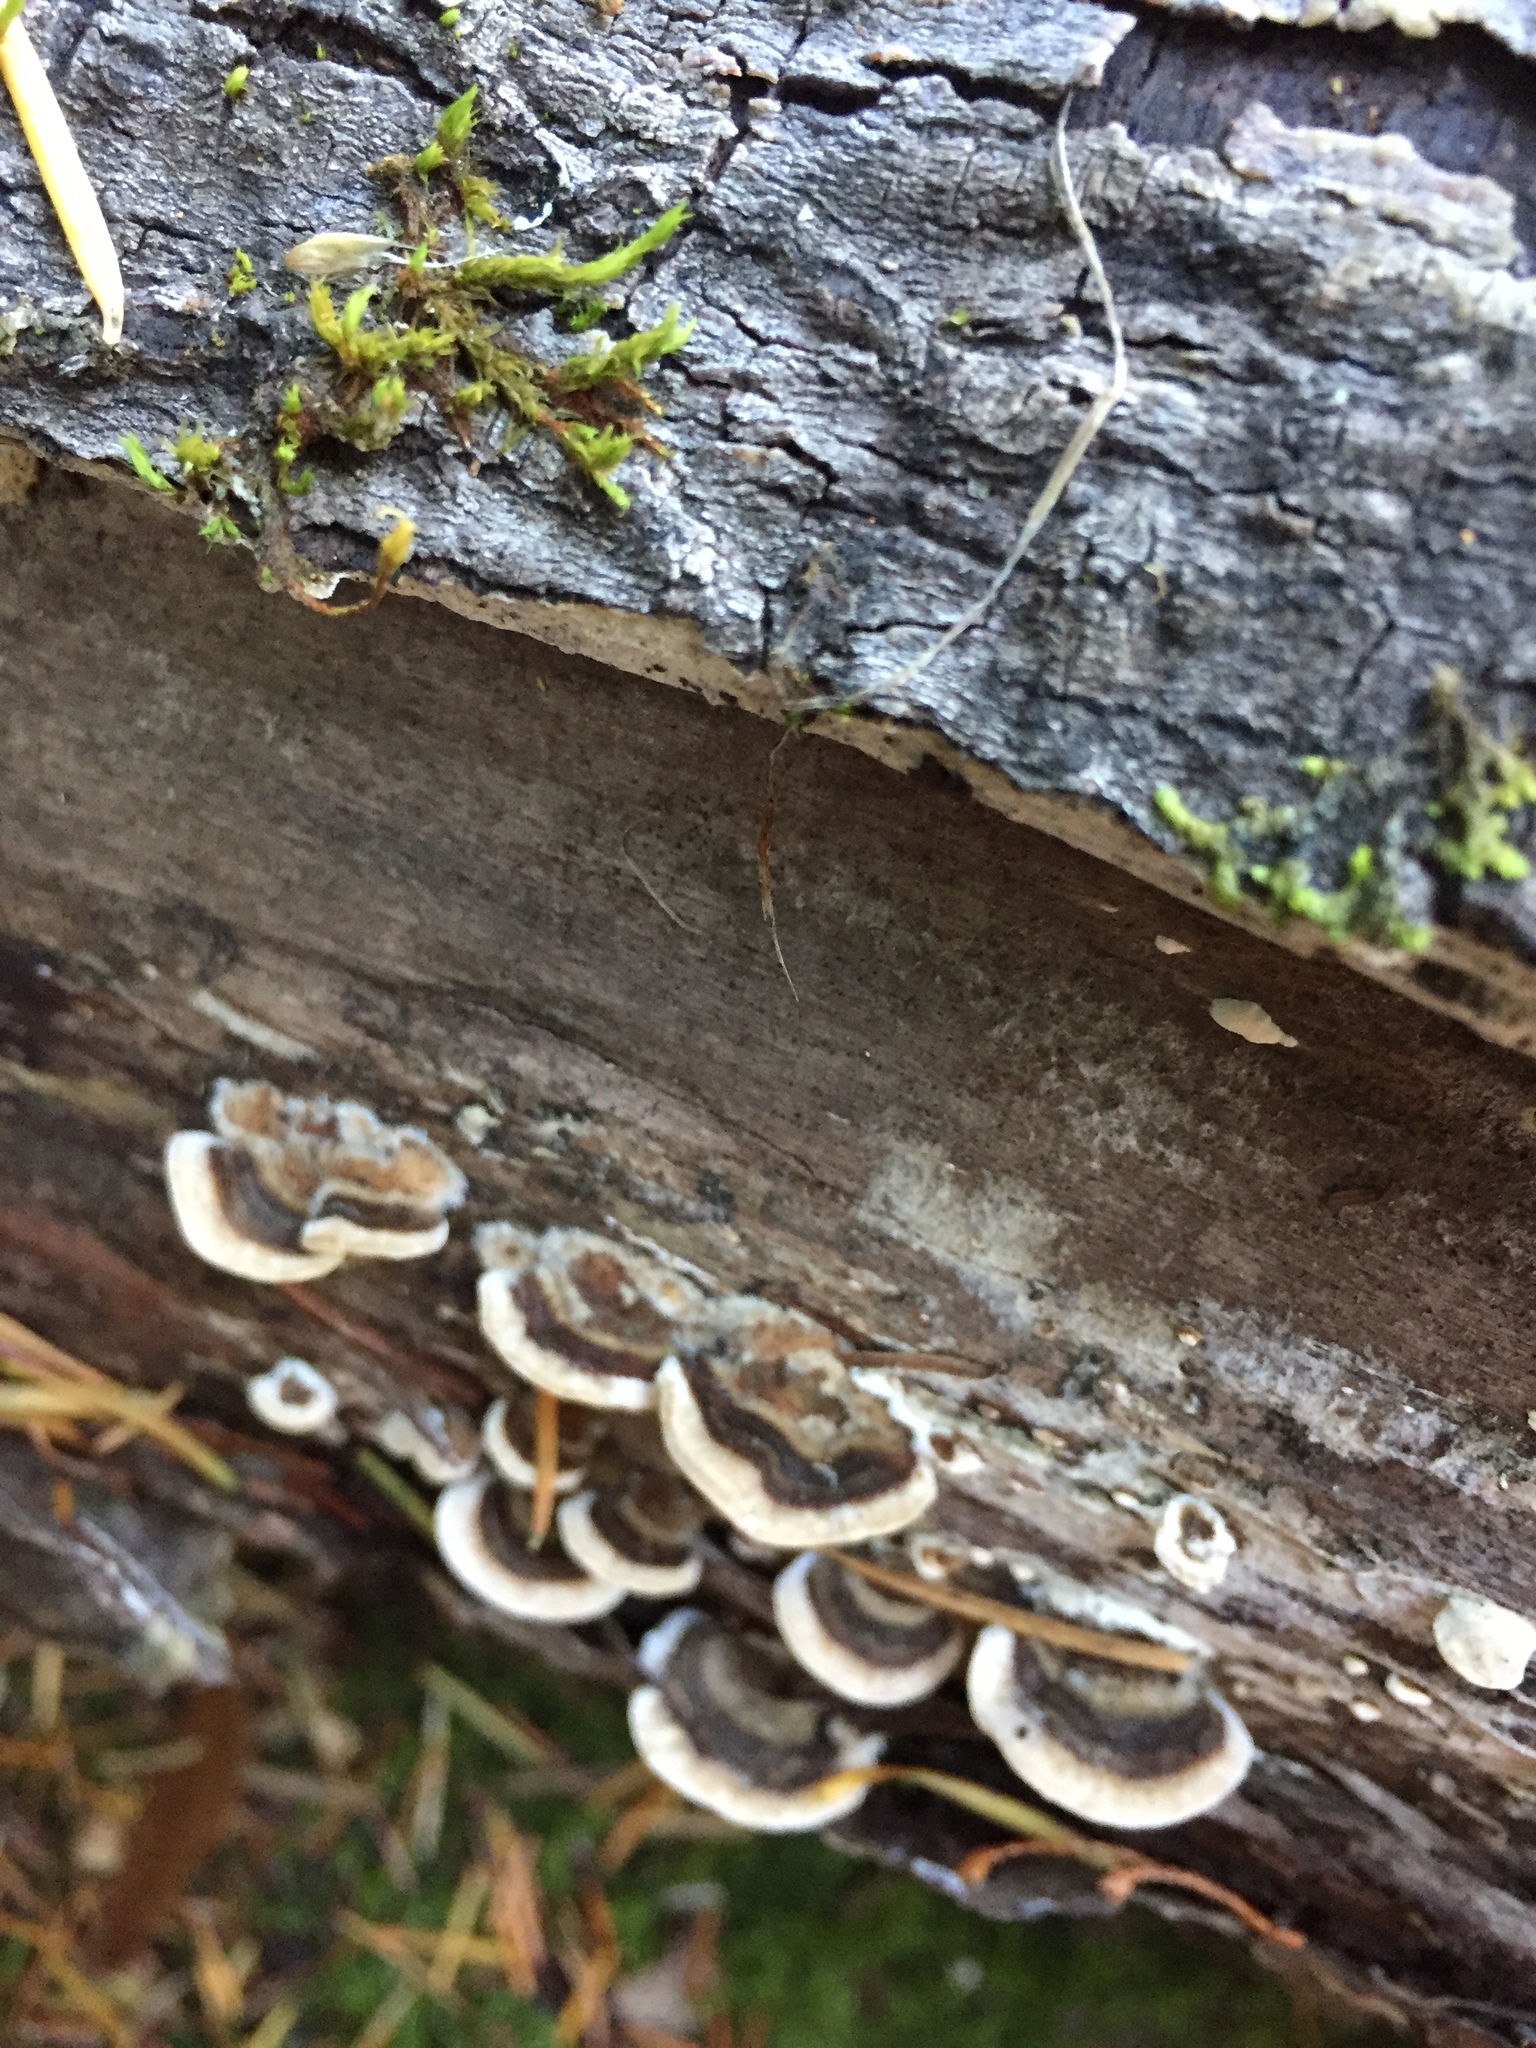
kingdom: Fungi
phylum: Basidiomycota
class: Agaricomycetes
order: Polyporales
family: Polyporaceae
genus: Trametes
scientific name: Trametes versicolor
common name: Turkeytail
